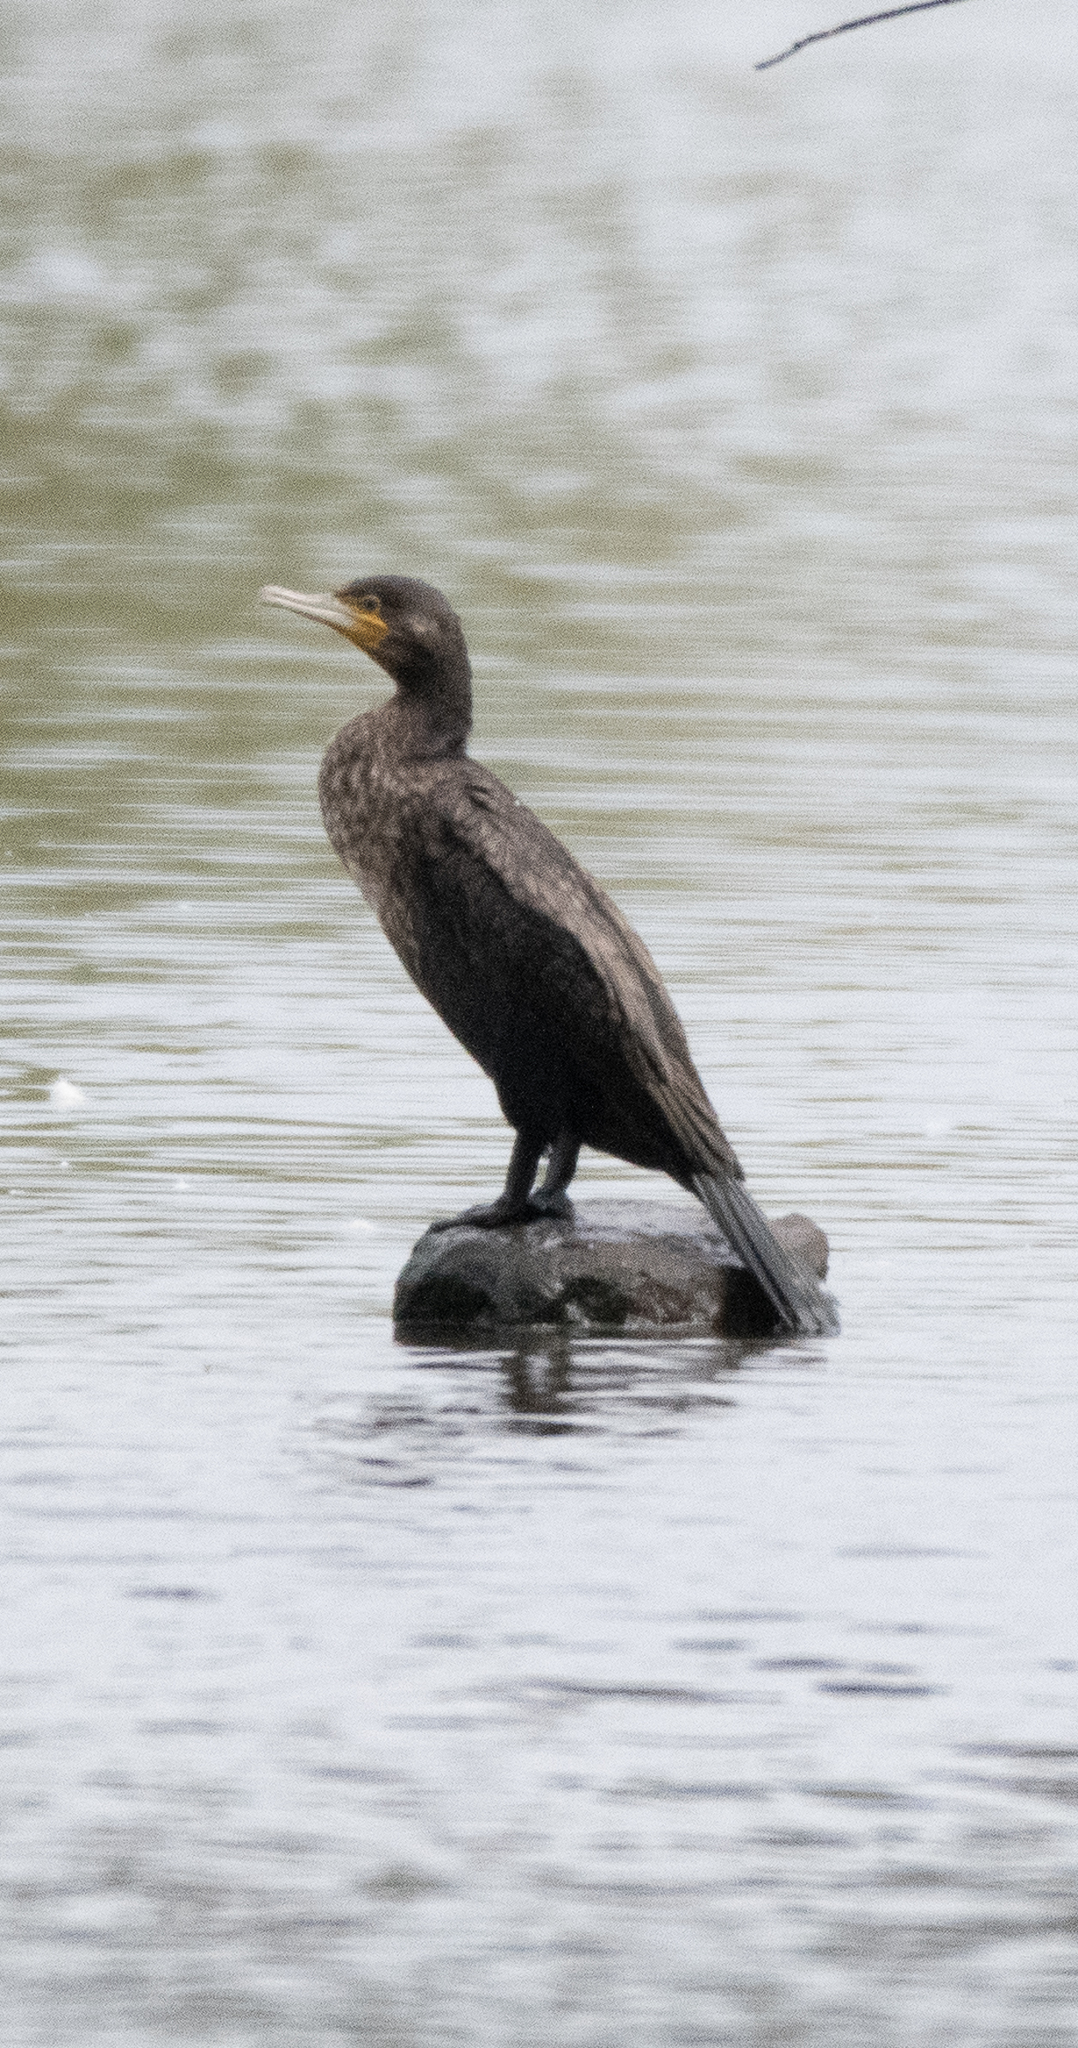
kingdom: Animalia
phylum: Chordata
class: Aves
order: Suliformes
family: Phalacrocoracidae
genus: Phalacrocorax
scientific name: Phalacrocorax carbo
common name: Great cormorant
